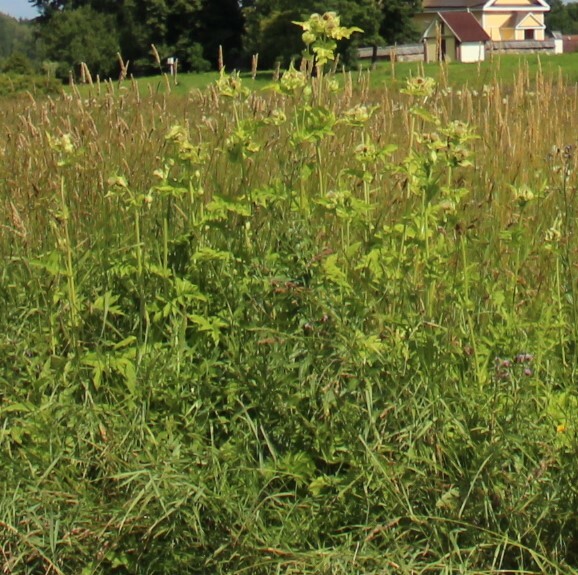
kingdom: Plantae
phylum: Tracheophyta
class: Magnoliopsida
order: Asterales
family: Asteraceae
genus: Cirsium
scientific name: Cirsium oleraceum
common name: Cabbage thistle
